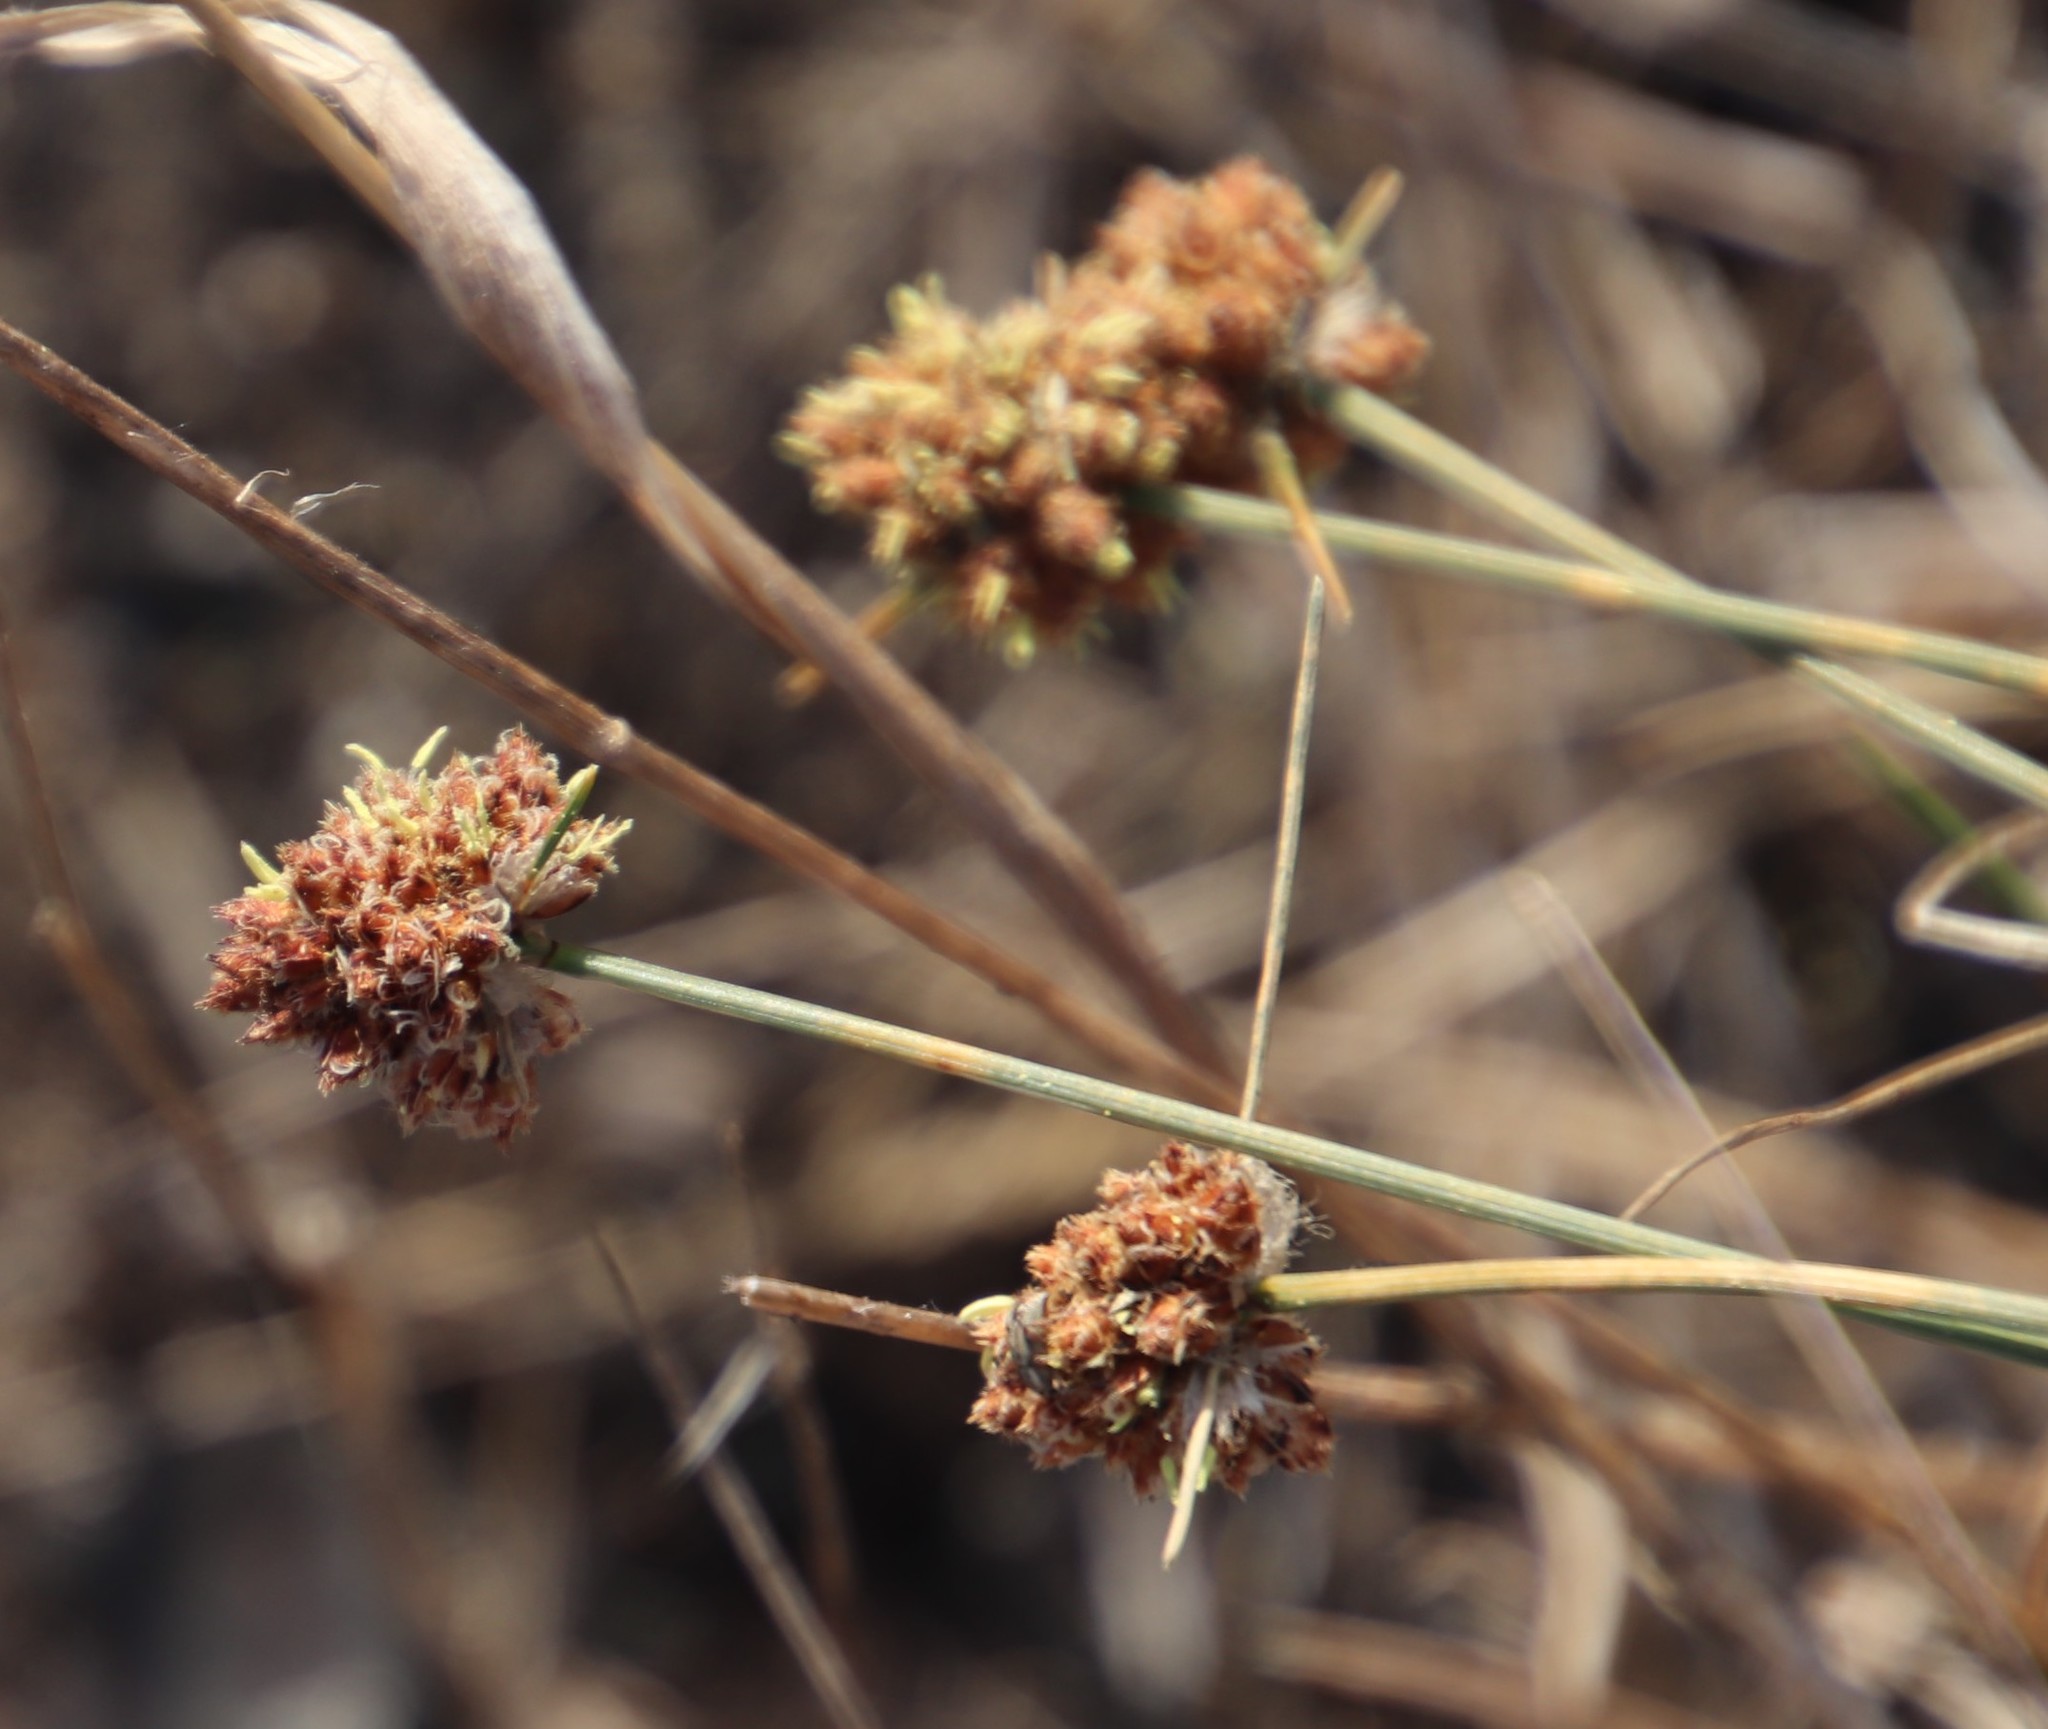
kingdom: Plantae
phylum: Tracheophyta
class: Liliopsida
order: Poales
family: Cyperaceae
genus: Ficinia
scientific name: Ficinia paradoxa
